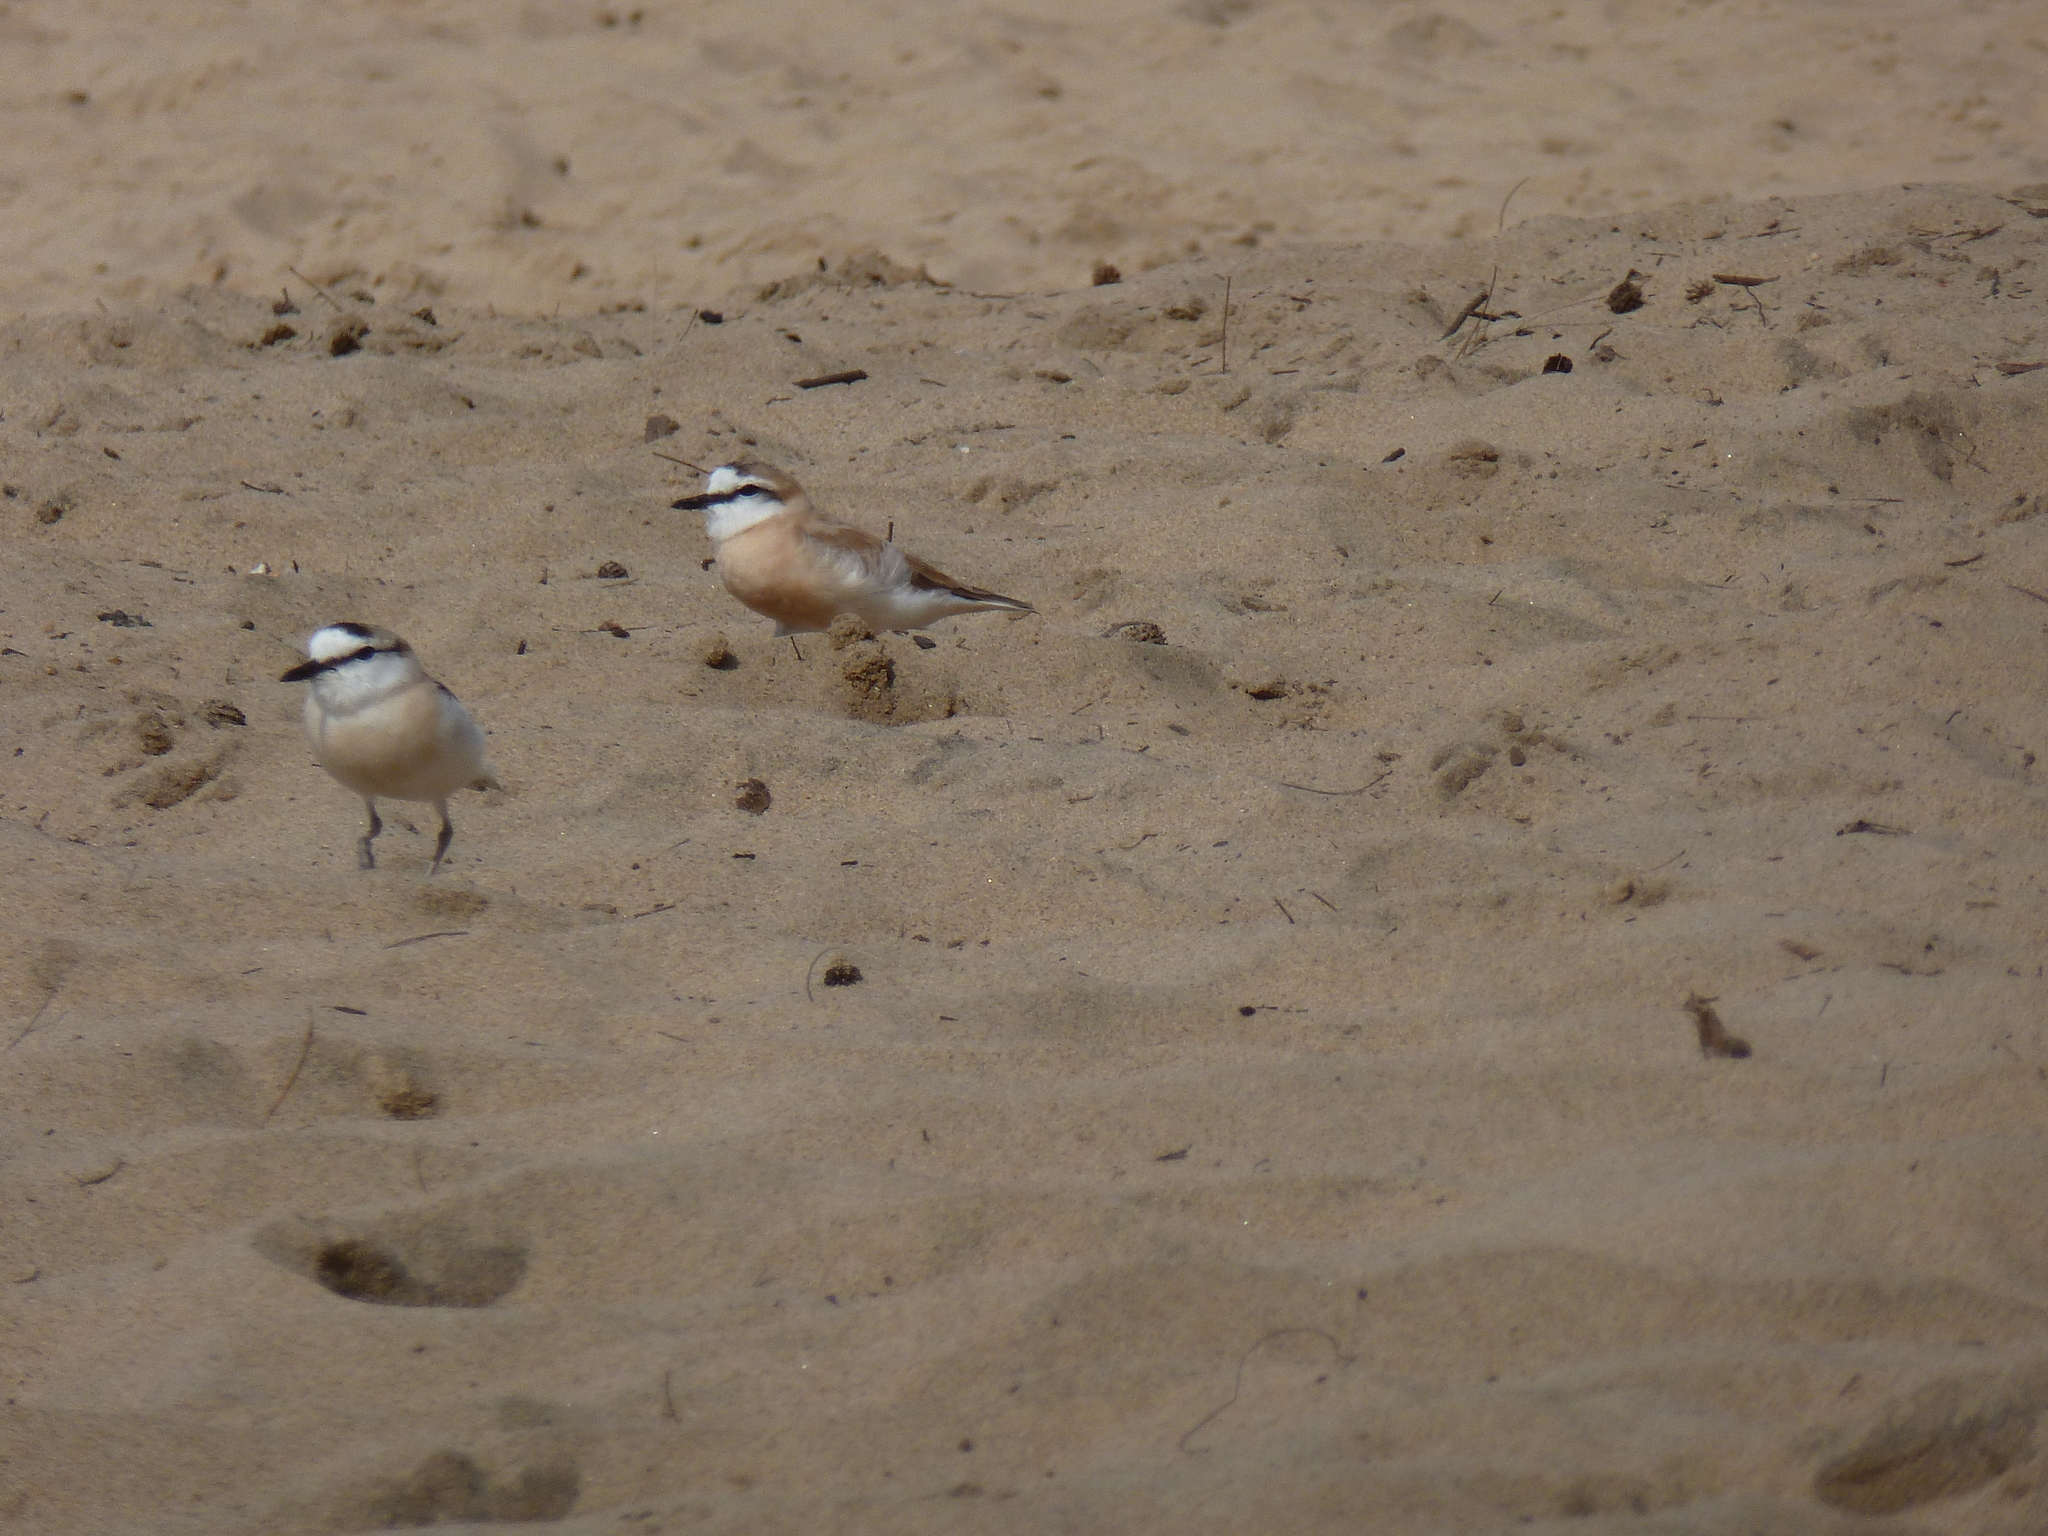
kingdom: Animalia
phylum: Chordata
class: Aves
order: Charadriiformes
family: Charadriidae
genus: Anarhynchus
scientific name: Anarhynchus
